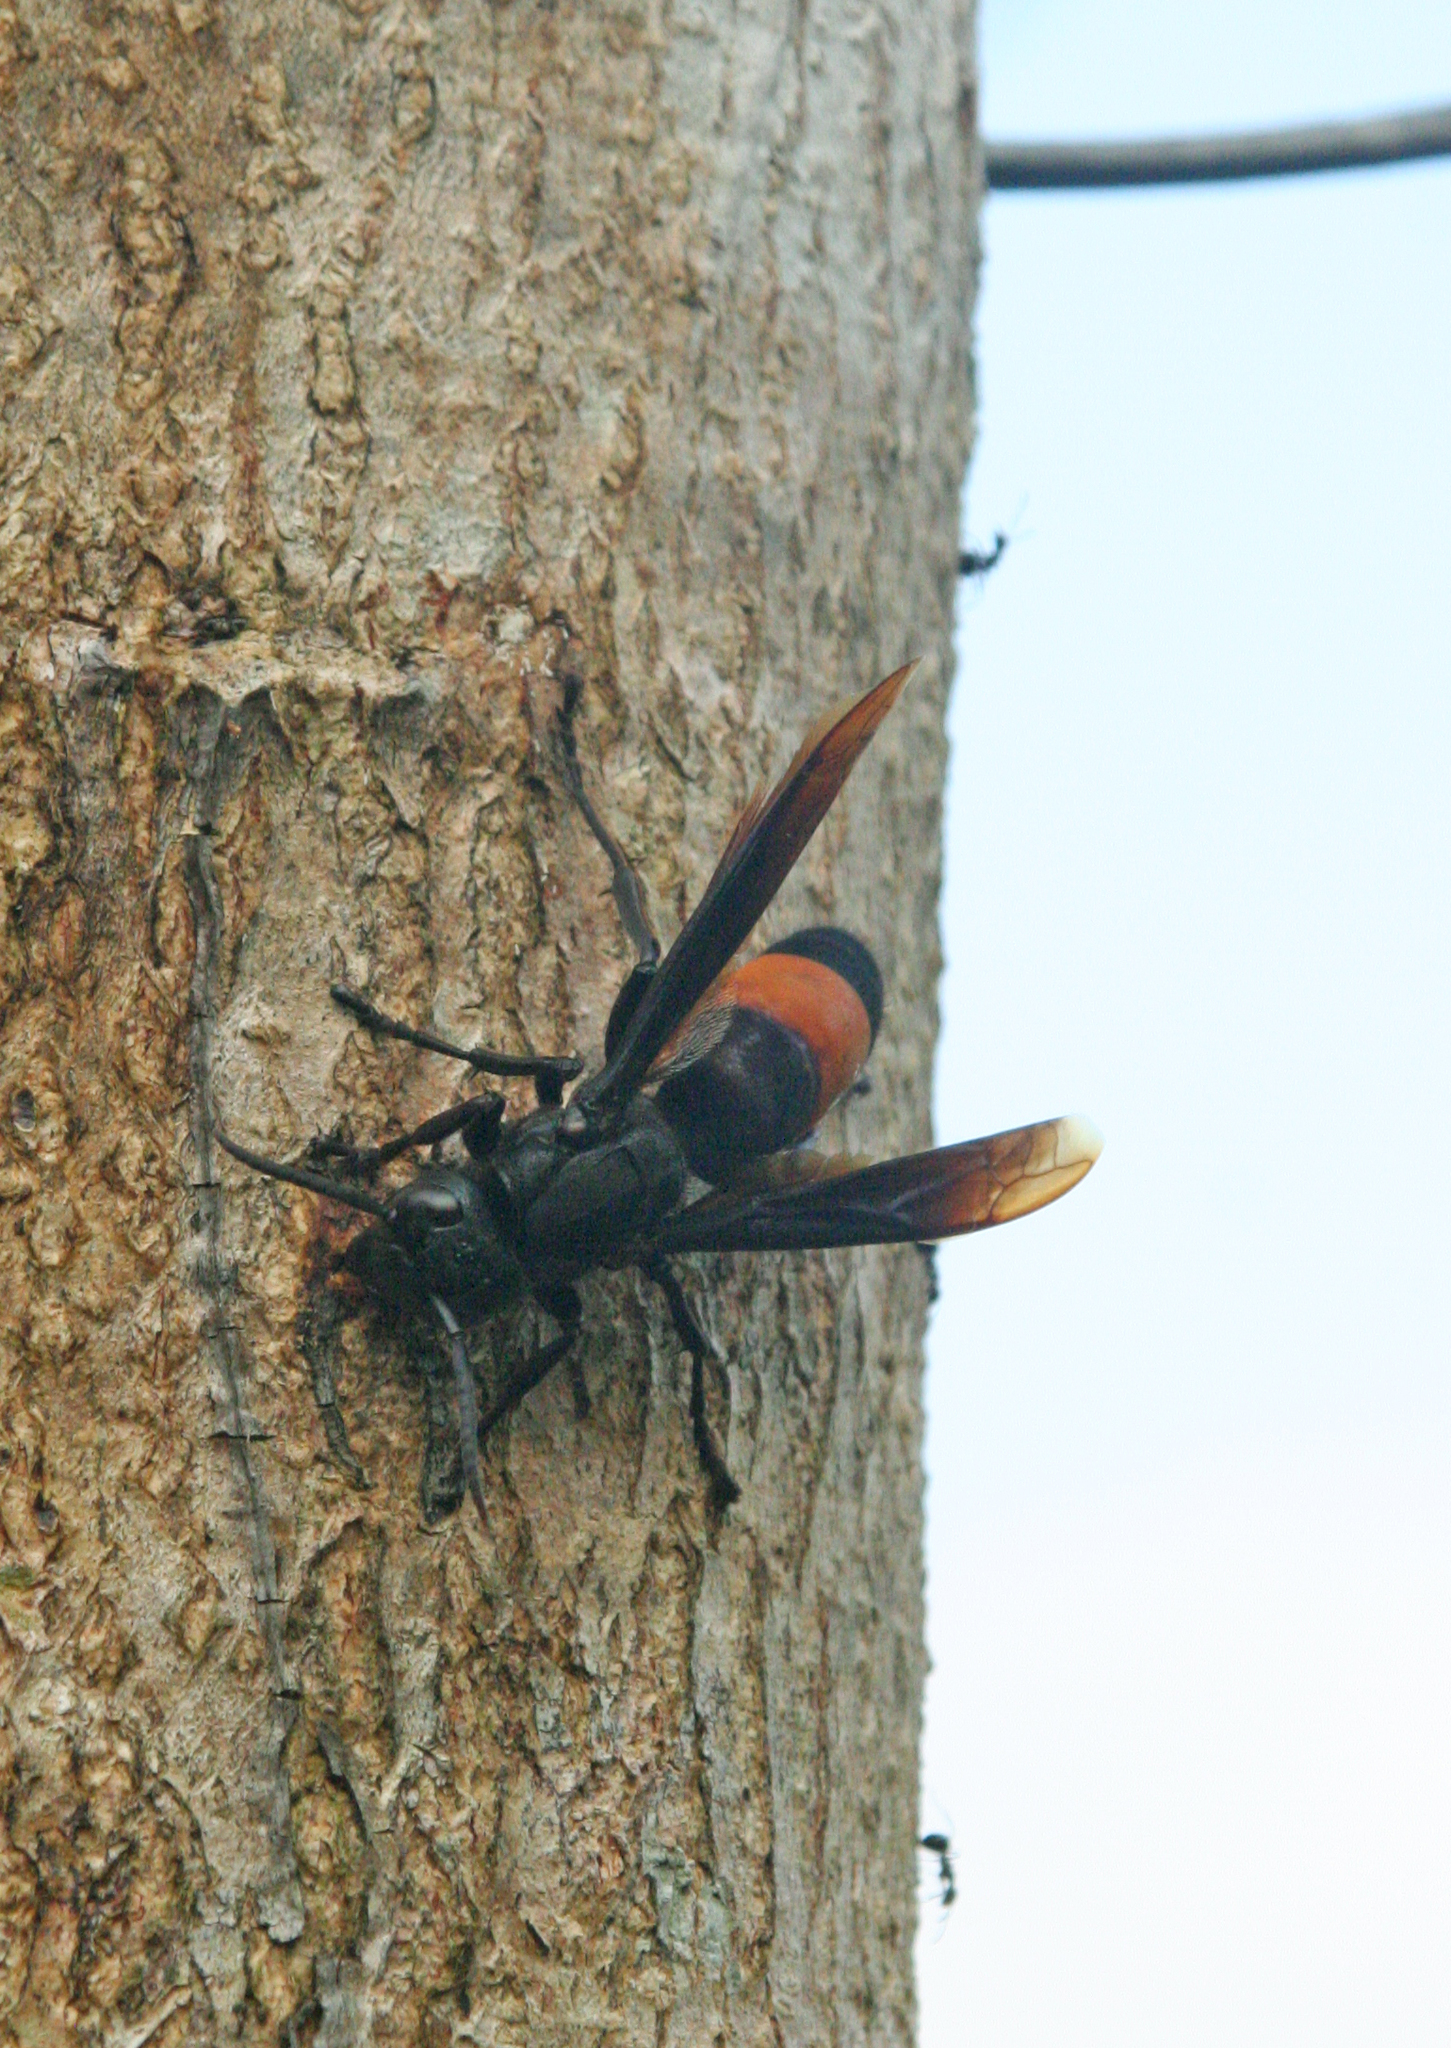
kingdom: Animalia
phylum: Arthropoda
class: Insecta
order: Hymenoptera
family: Vespidae
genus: Vespa
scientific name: Vespa tropica
